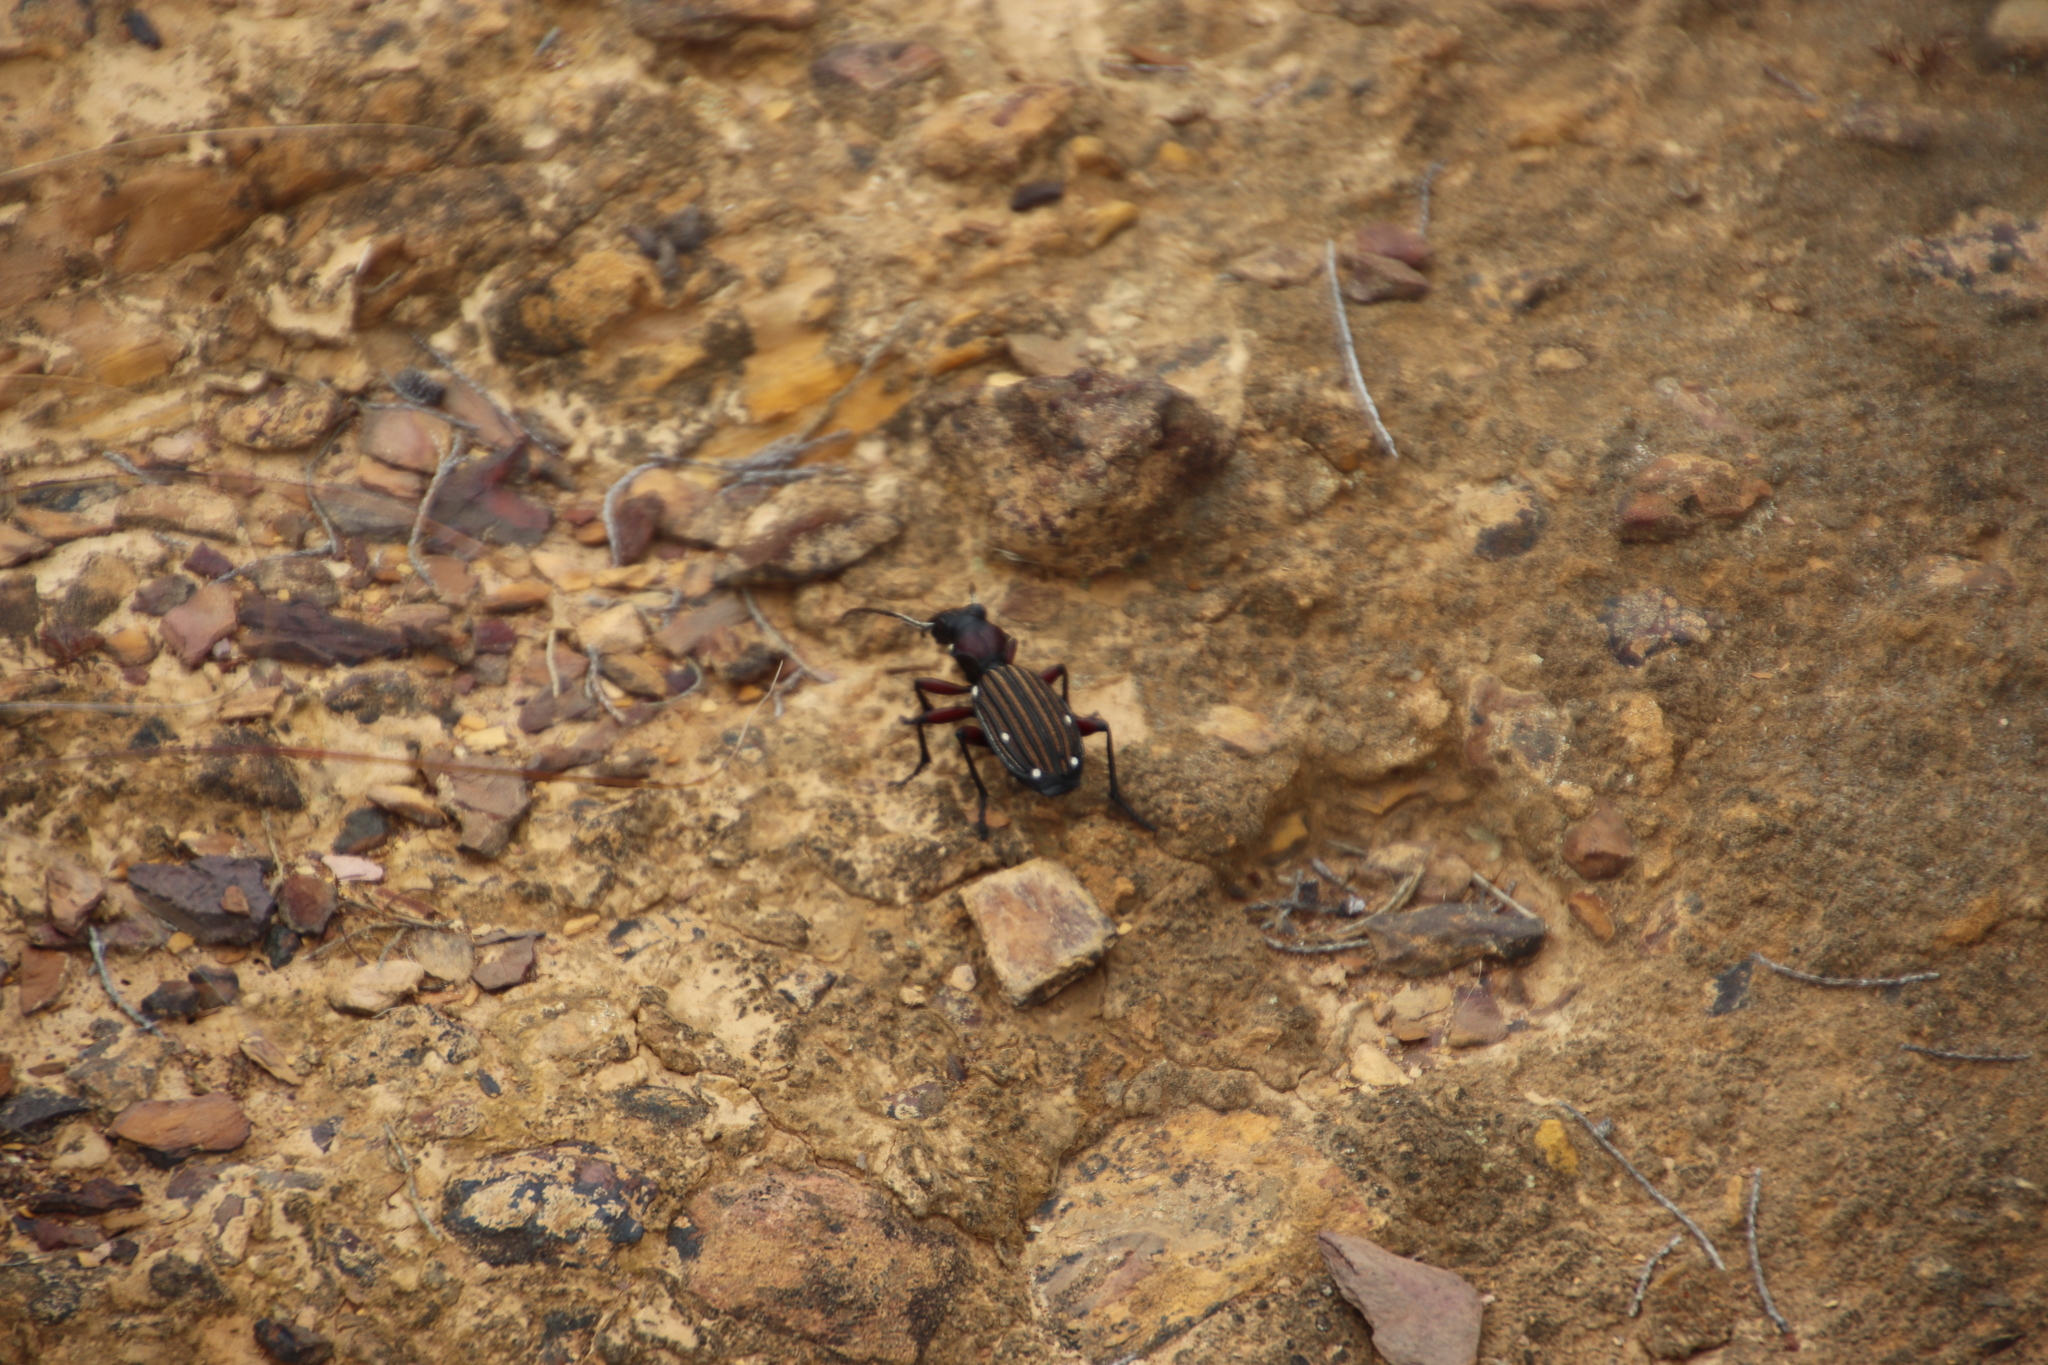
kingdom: Animalia
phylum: Arthropoda
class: Insecta
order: Coleoptera
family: Carabidae
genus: Anthia
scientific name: Anthia decemguttata
